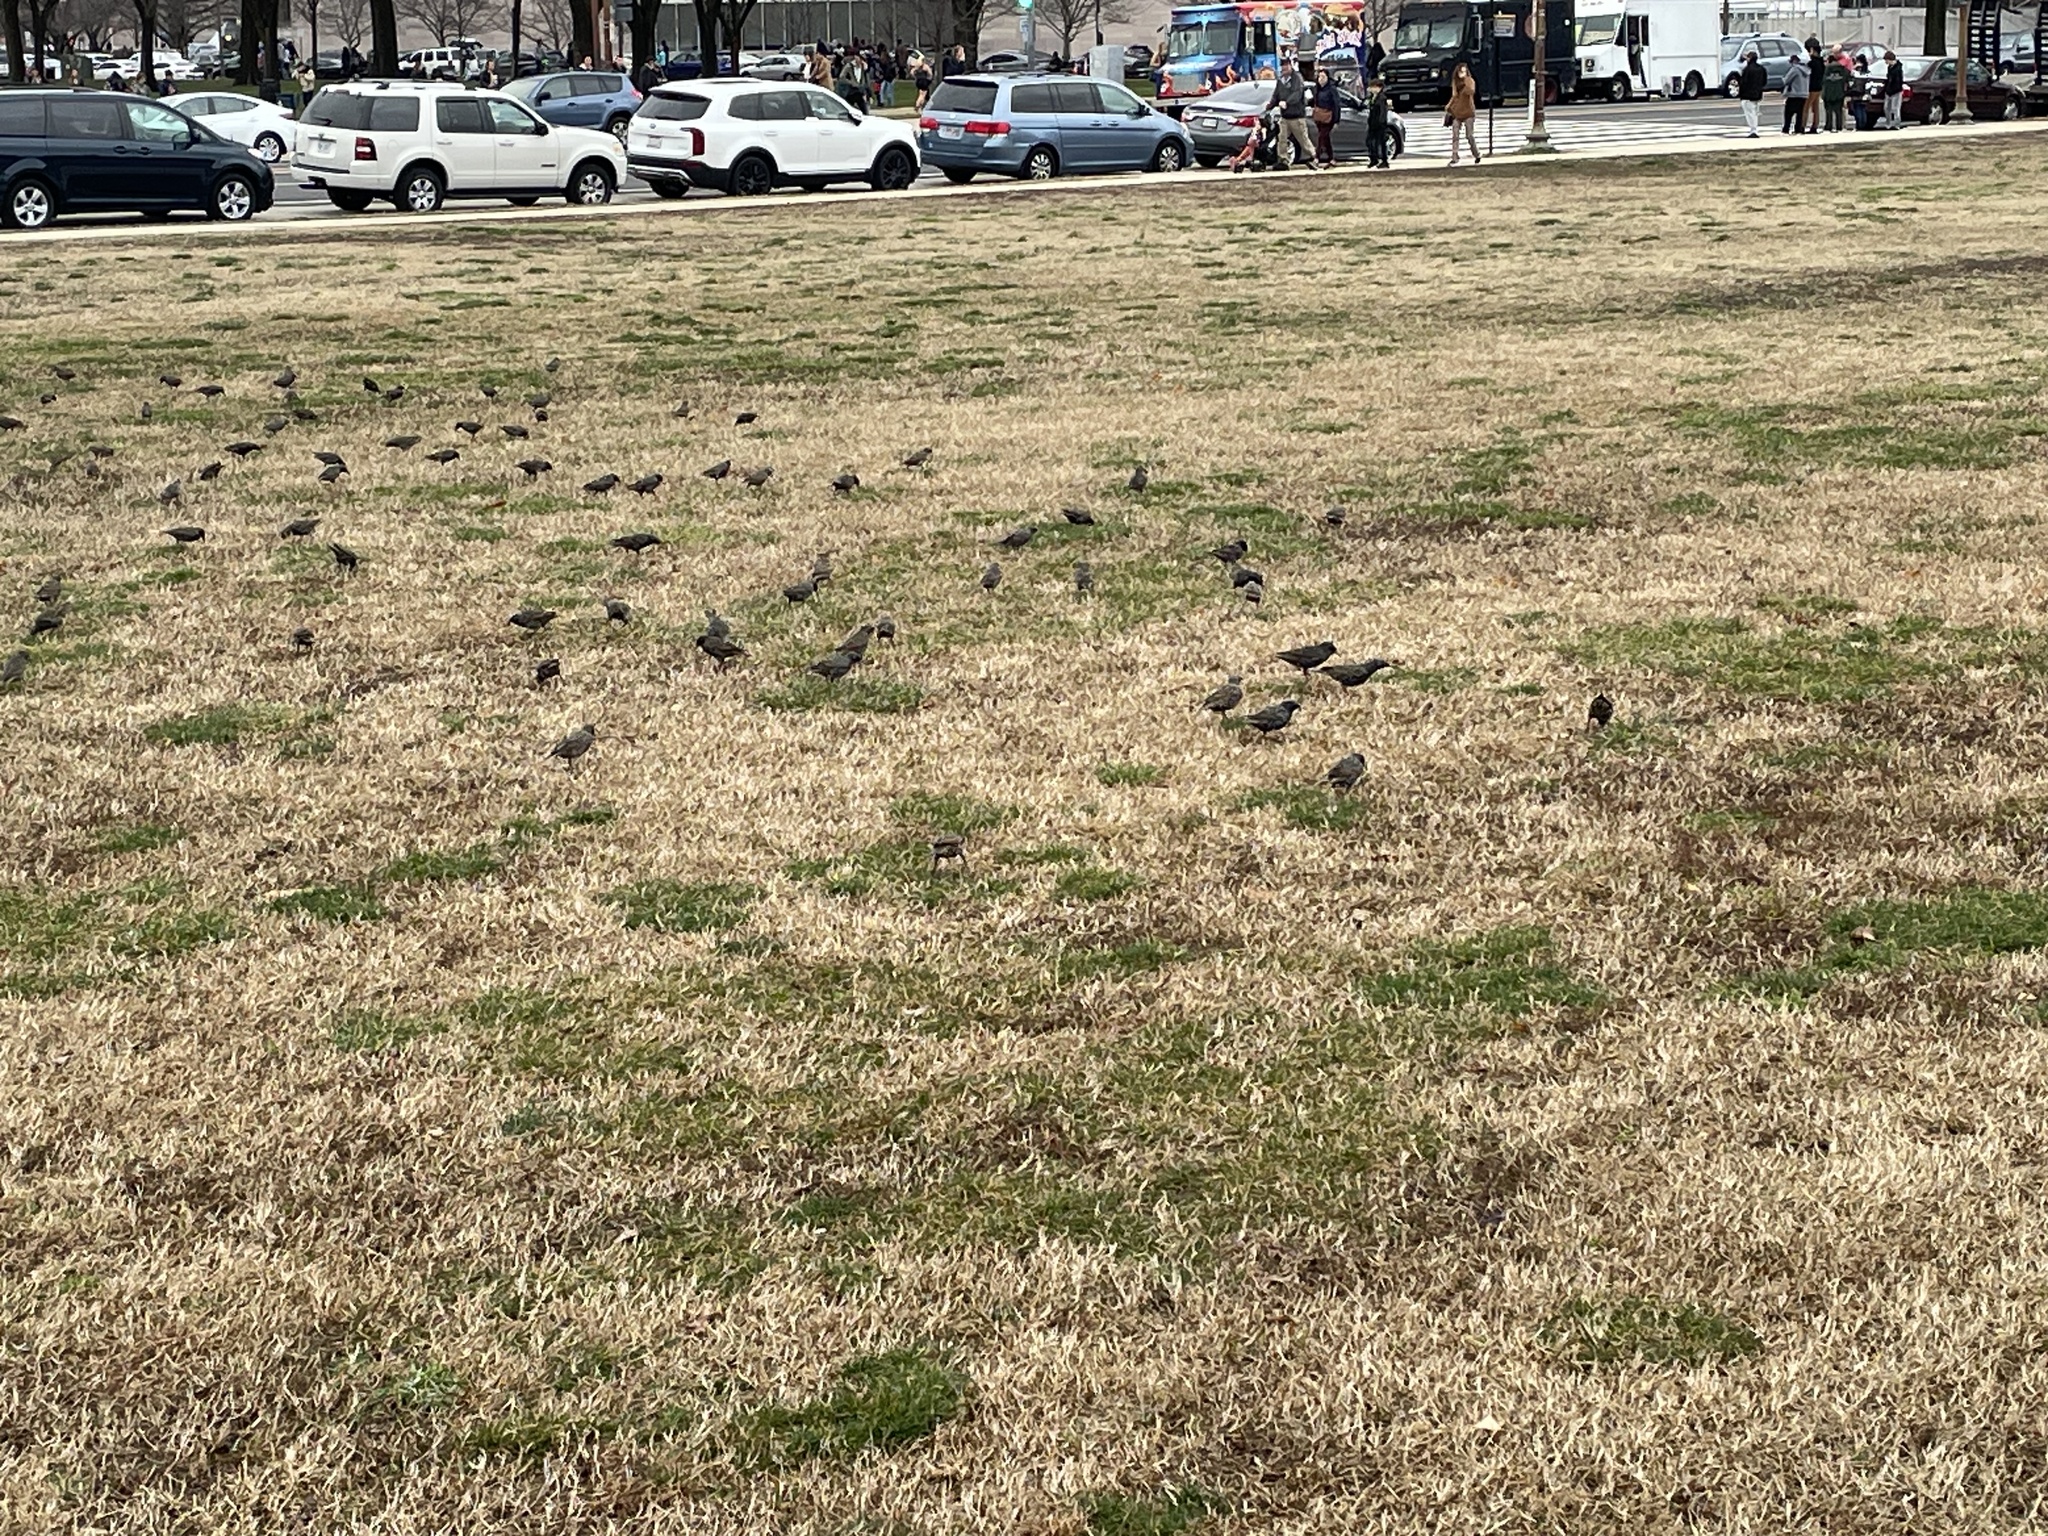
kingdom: Animalia
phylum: Chordata
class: Aves
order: Passeriformes
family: Sturnidae
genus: Sturnus
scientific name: Sturnus vulgaris
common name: Common starling
